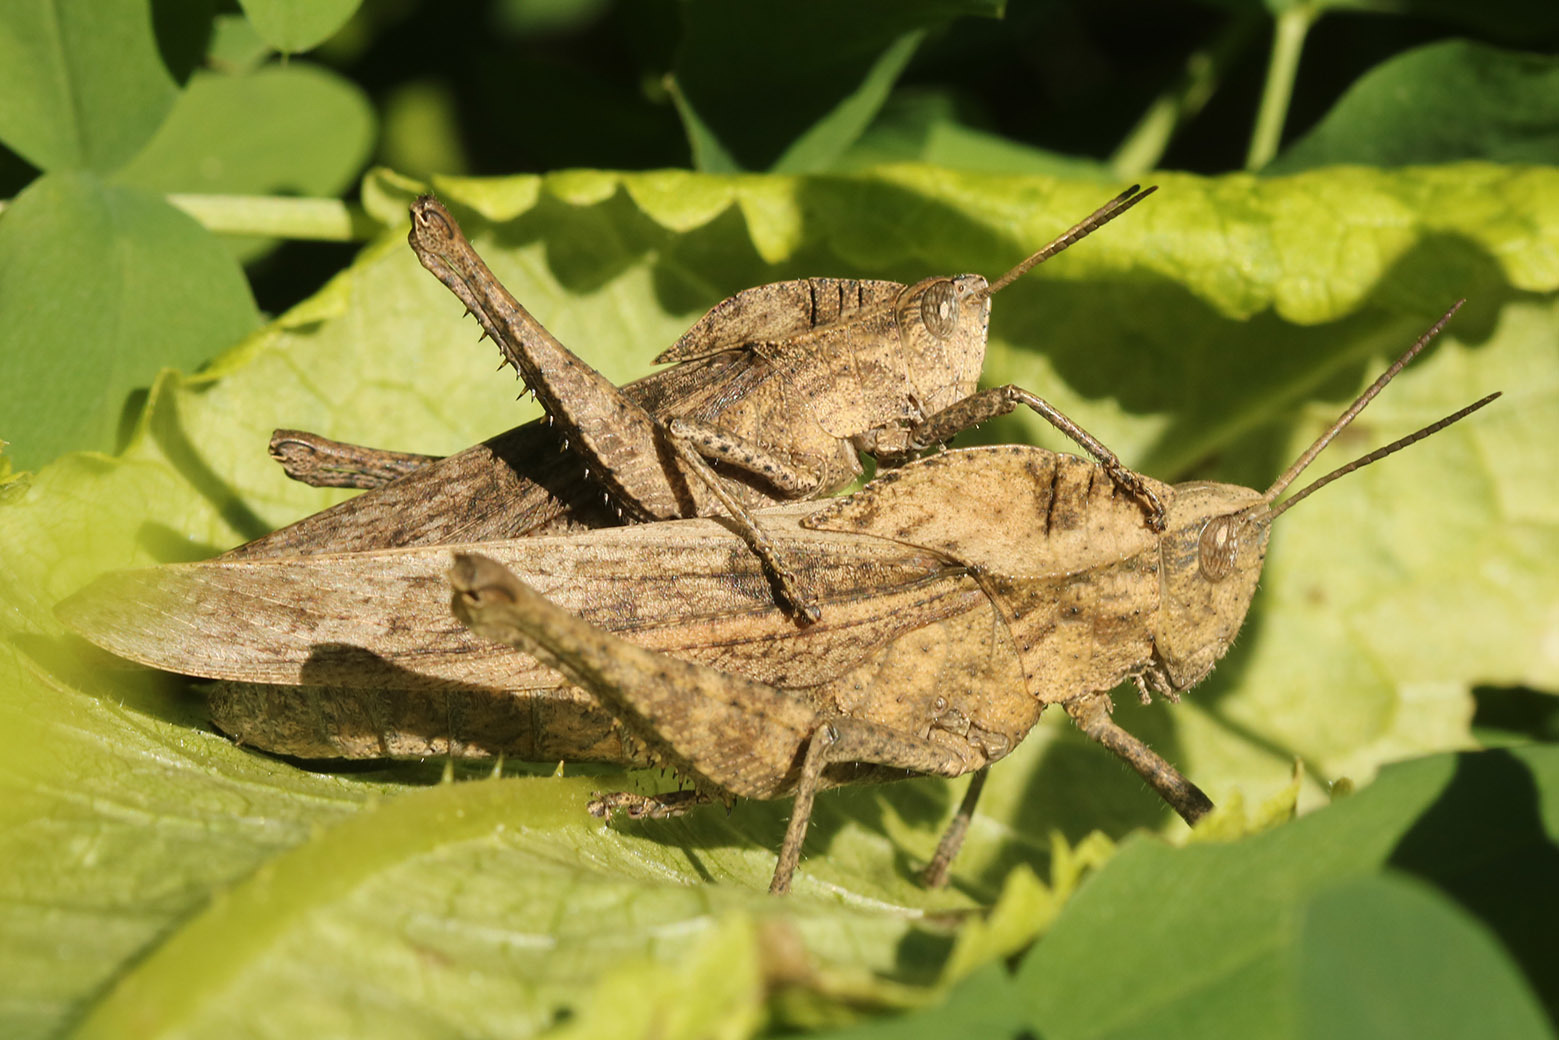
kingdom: Animalia
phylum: Arthropoda
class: Insecta
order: Orthoptera
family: Romaleidae
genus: Xyleus
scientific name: Xyleus discoideus
